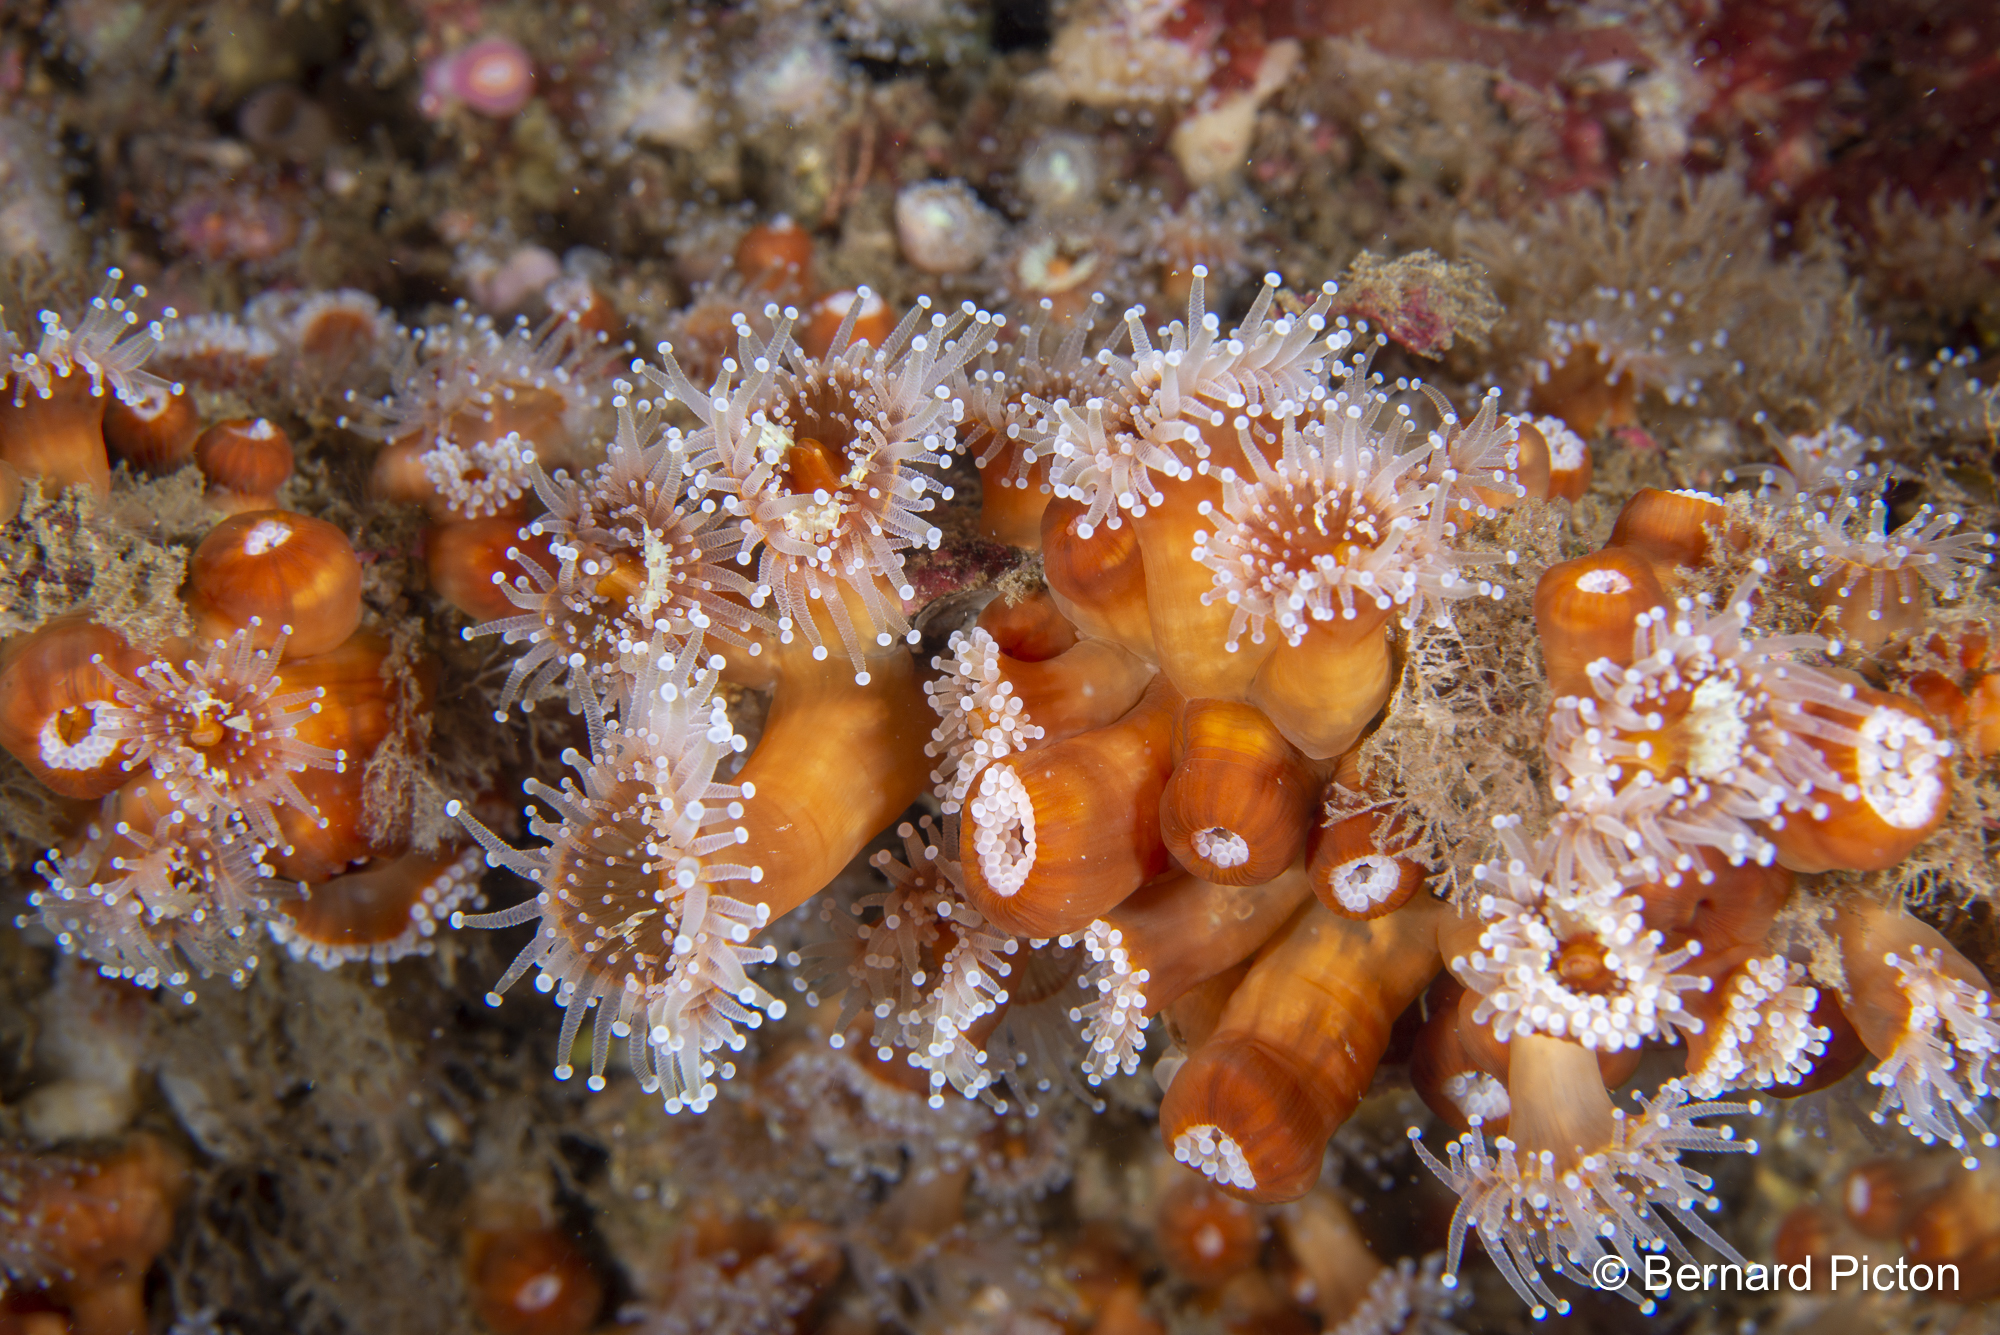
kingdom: Animalia
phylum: Cnidaria
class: Anthozoa
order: Corallimorpharia
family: Corallimorphidae
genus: Corynactis
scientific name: Corynactis viridis
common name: Jewel anemone
